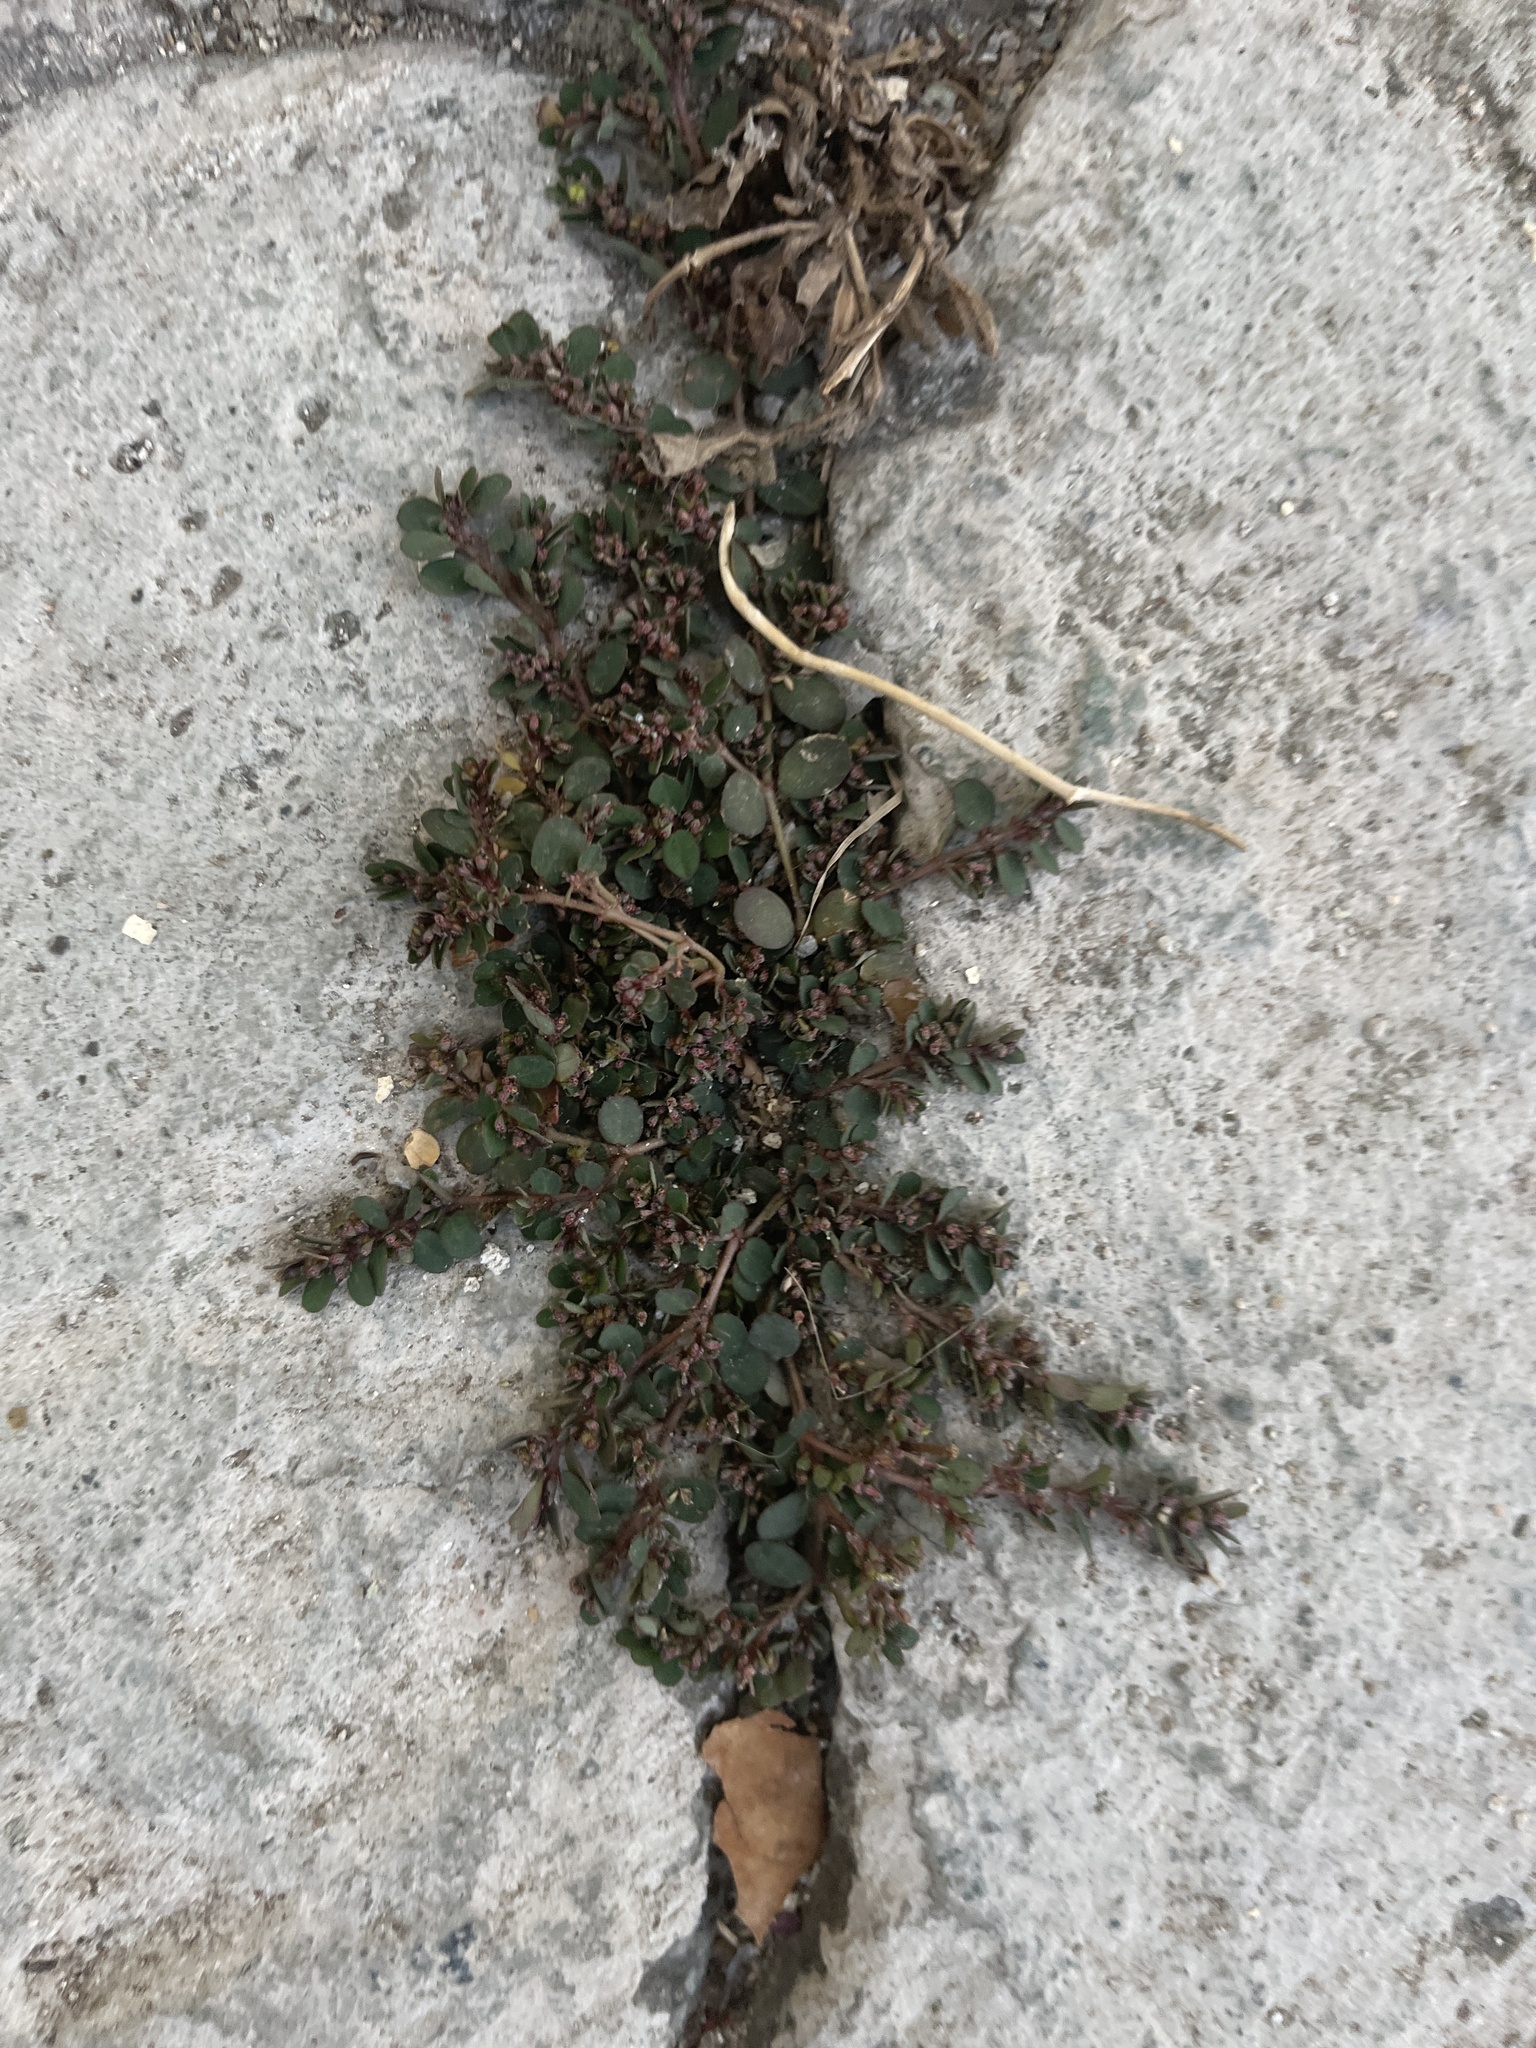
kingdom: Plantae
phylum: Tracheophyta
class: Magnoliopsida
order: Malpighiales
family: Euphorbiaceae
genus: Euphorbia
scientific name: Euphorbia prostrata
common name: Prostrate sandmat
